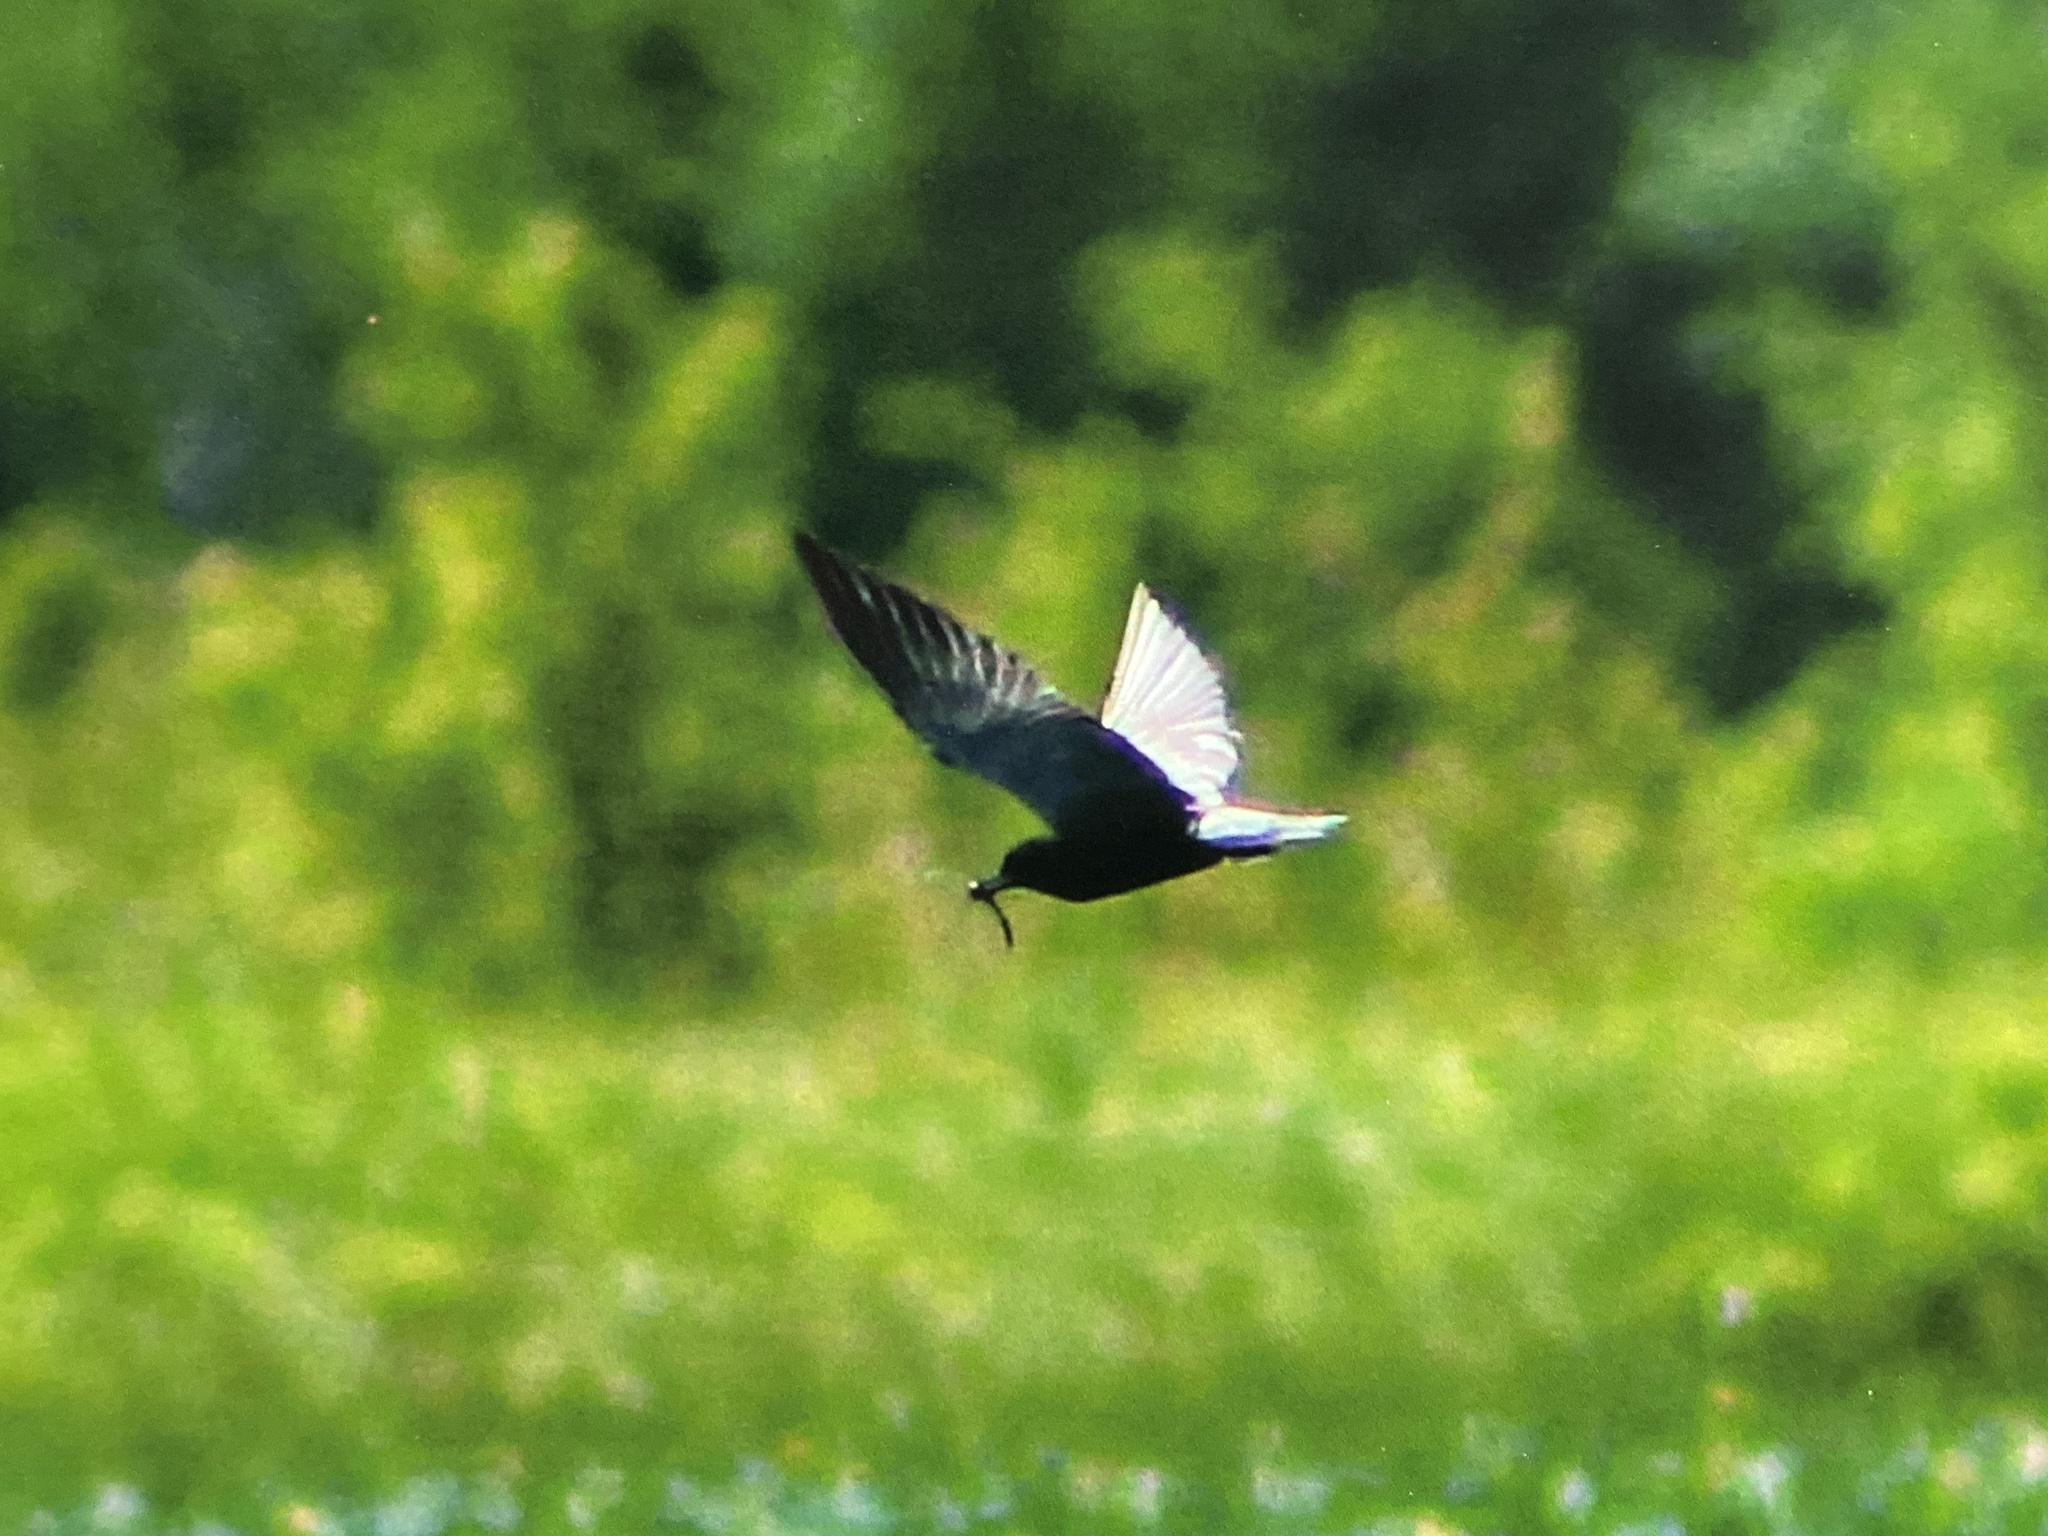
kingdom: Animalia
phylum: Chordata
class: Aves
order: Charadriiformes
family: Laridae
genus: Chlidonias
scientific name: Chlidonias niger
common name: Black tern
